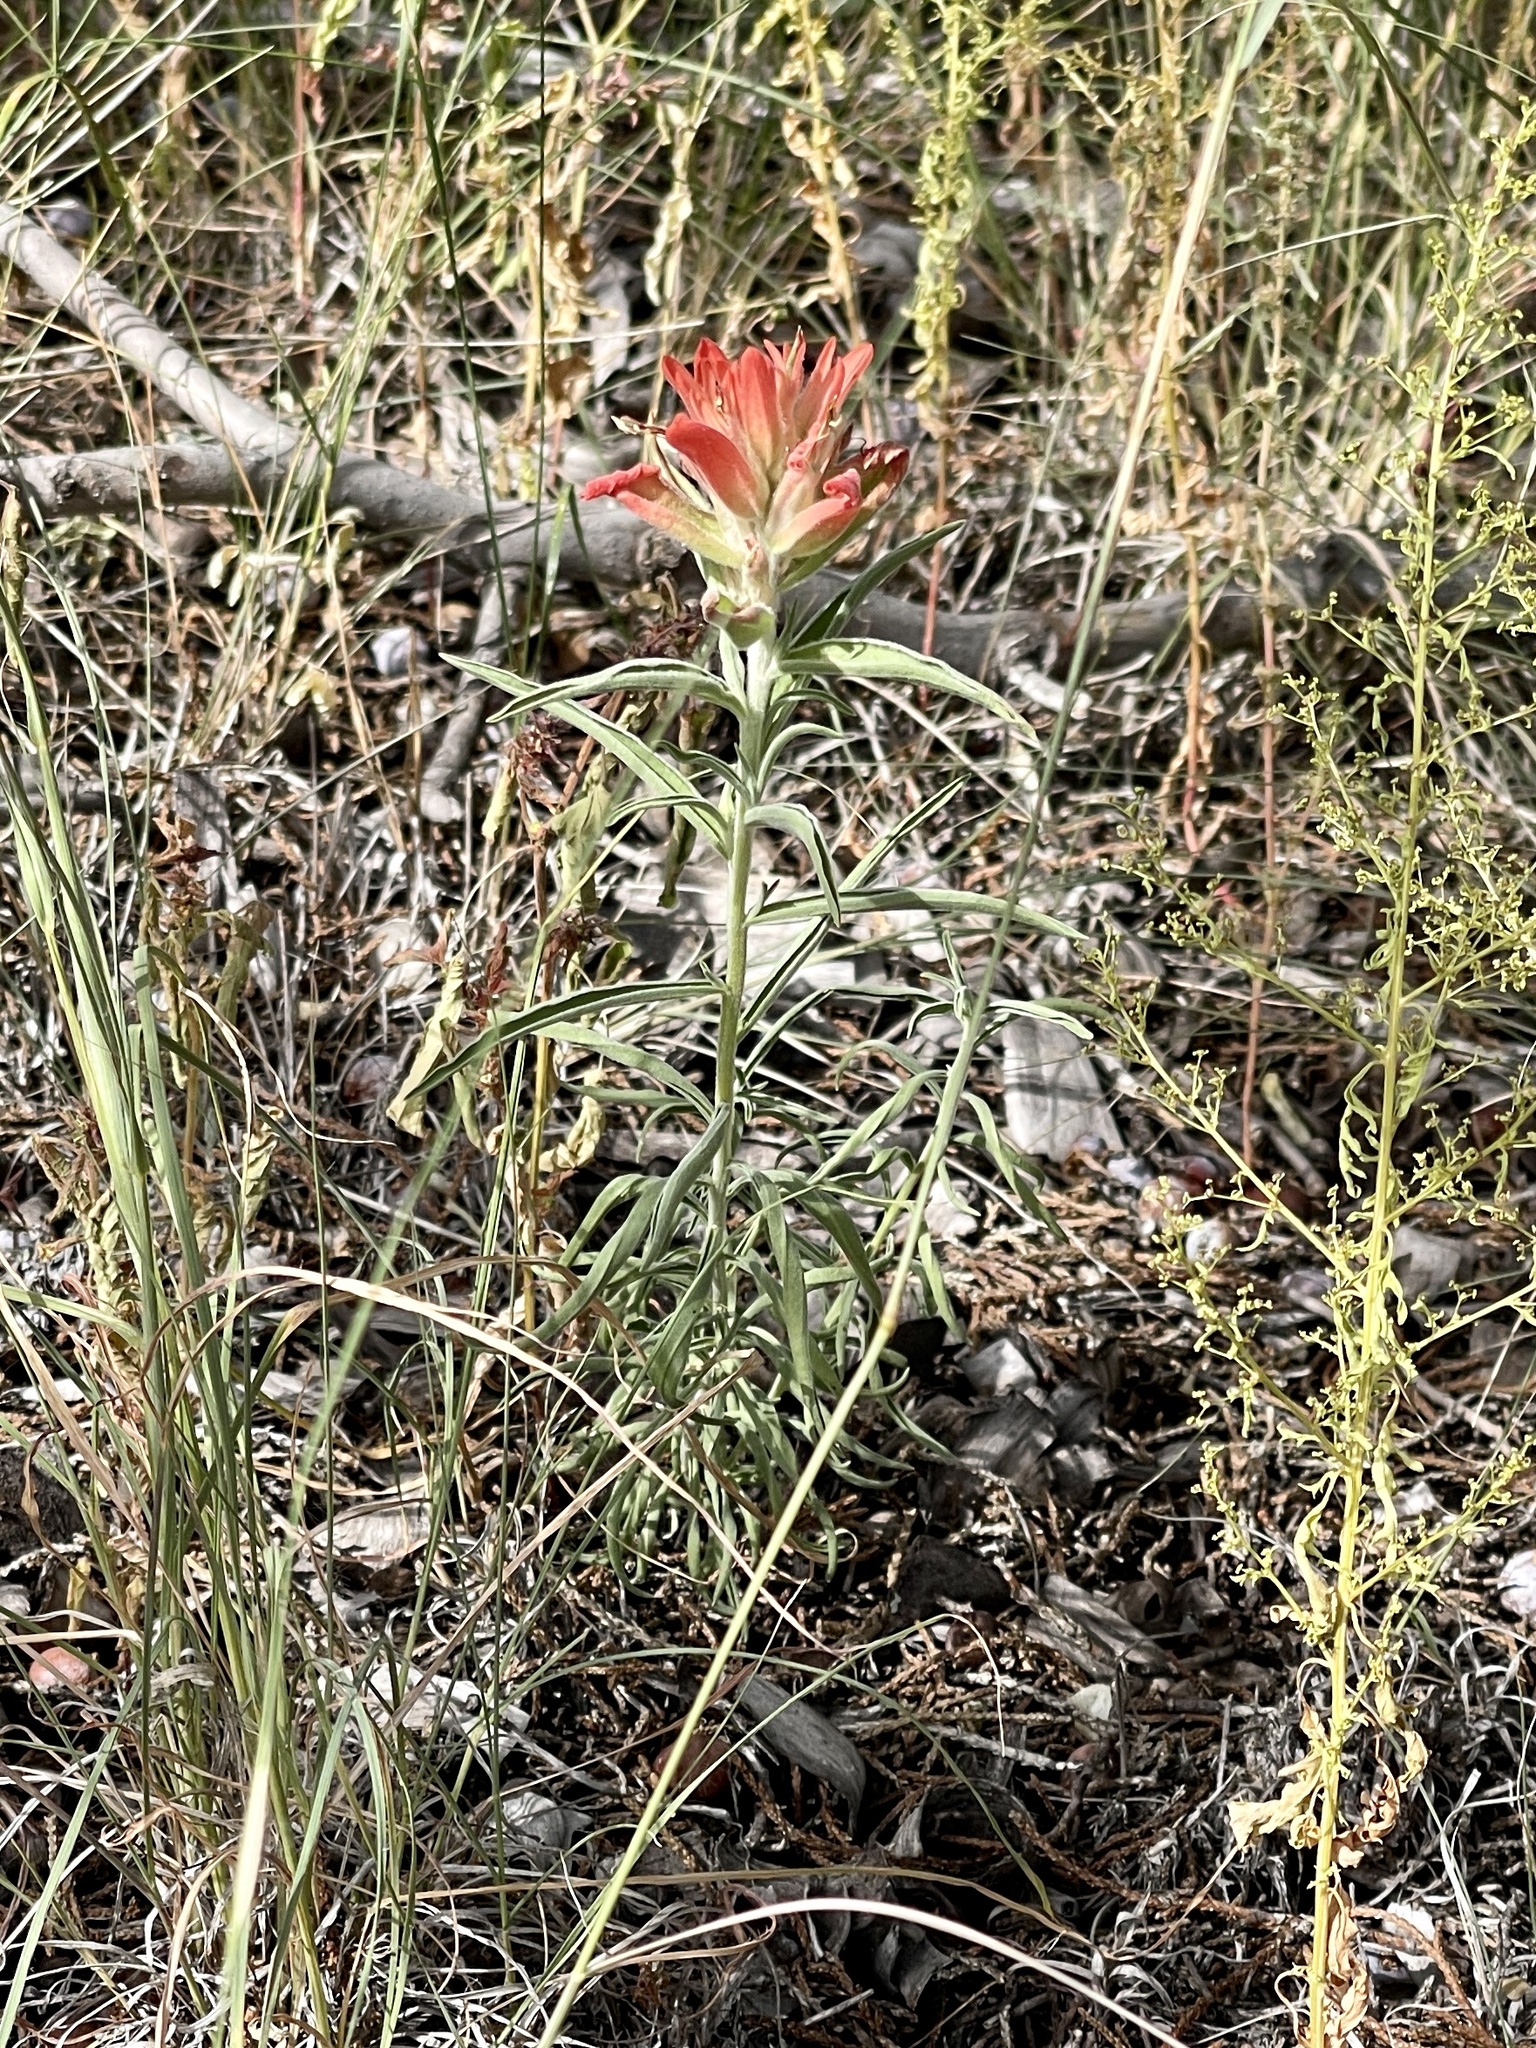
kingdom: Plantae
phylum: Tracheophyta
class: Magnoliopsida
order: Lamiales
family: Orobanchaceae
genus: Castilleja
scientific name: Castilleja integra
